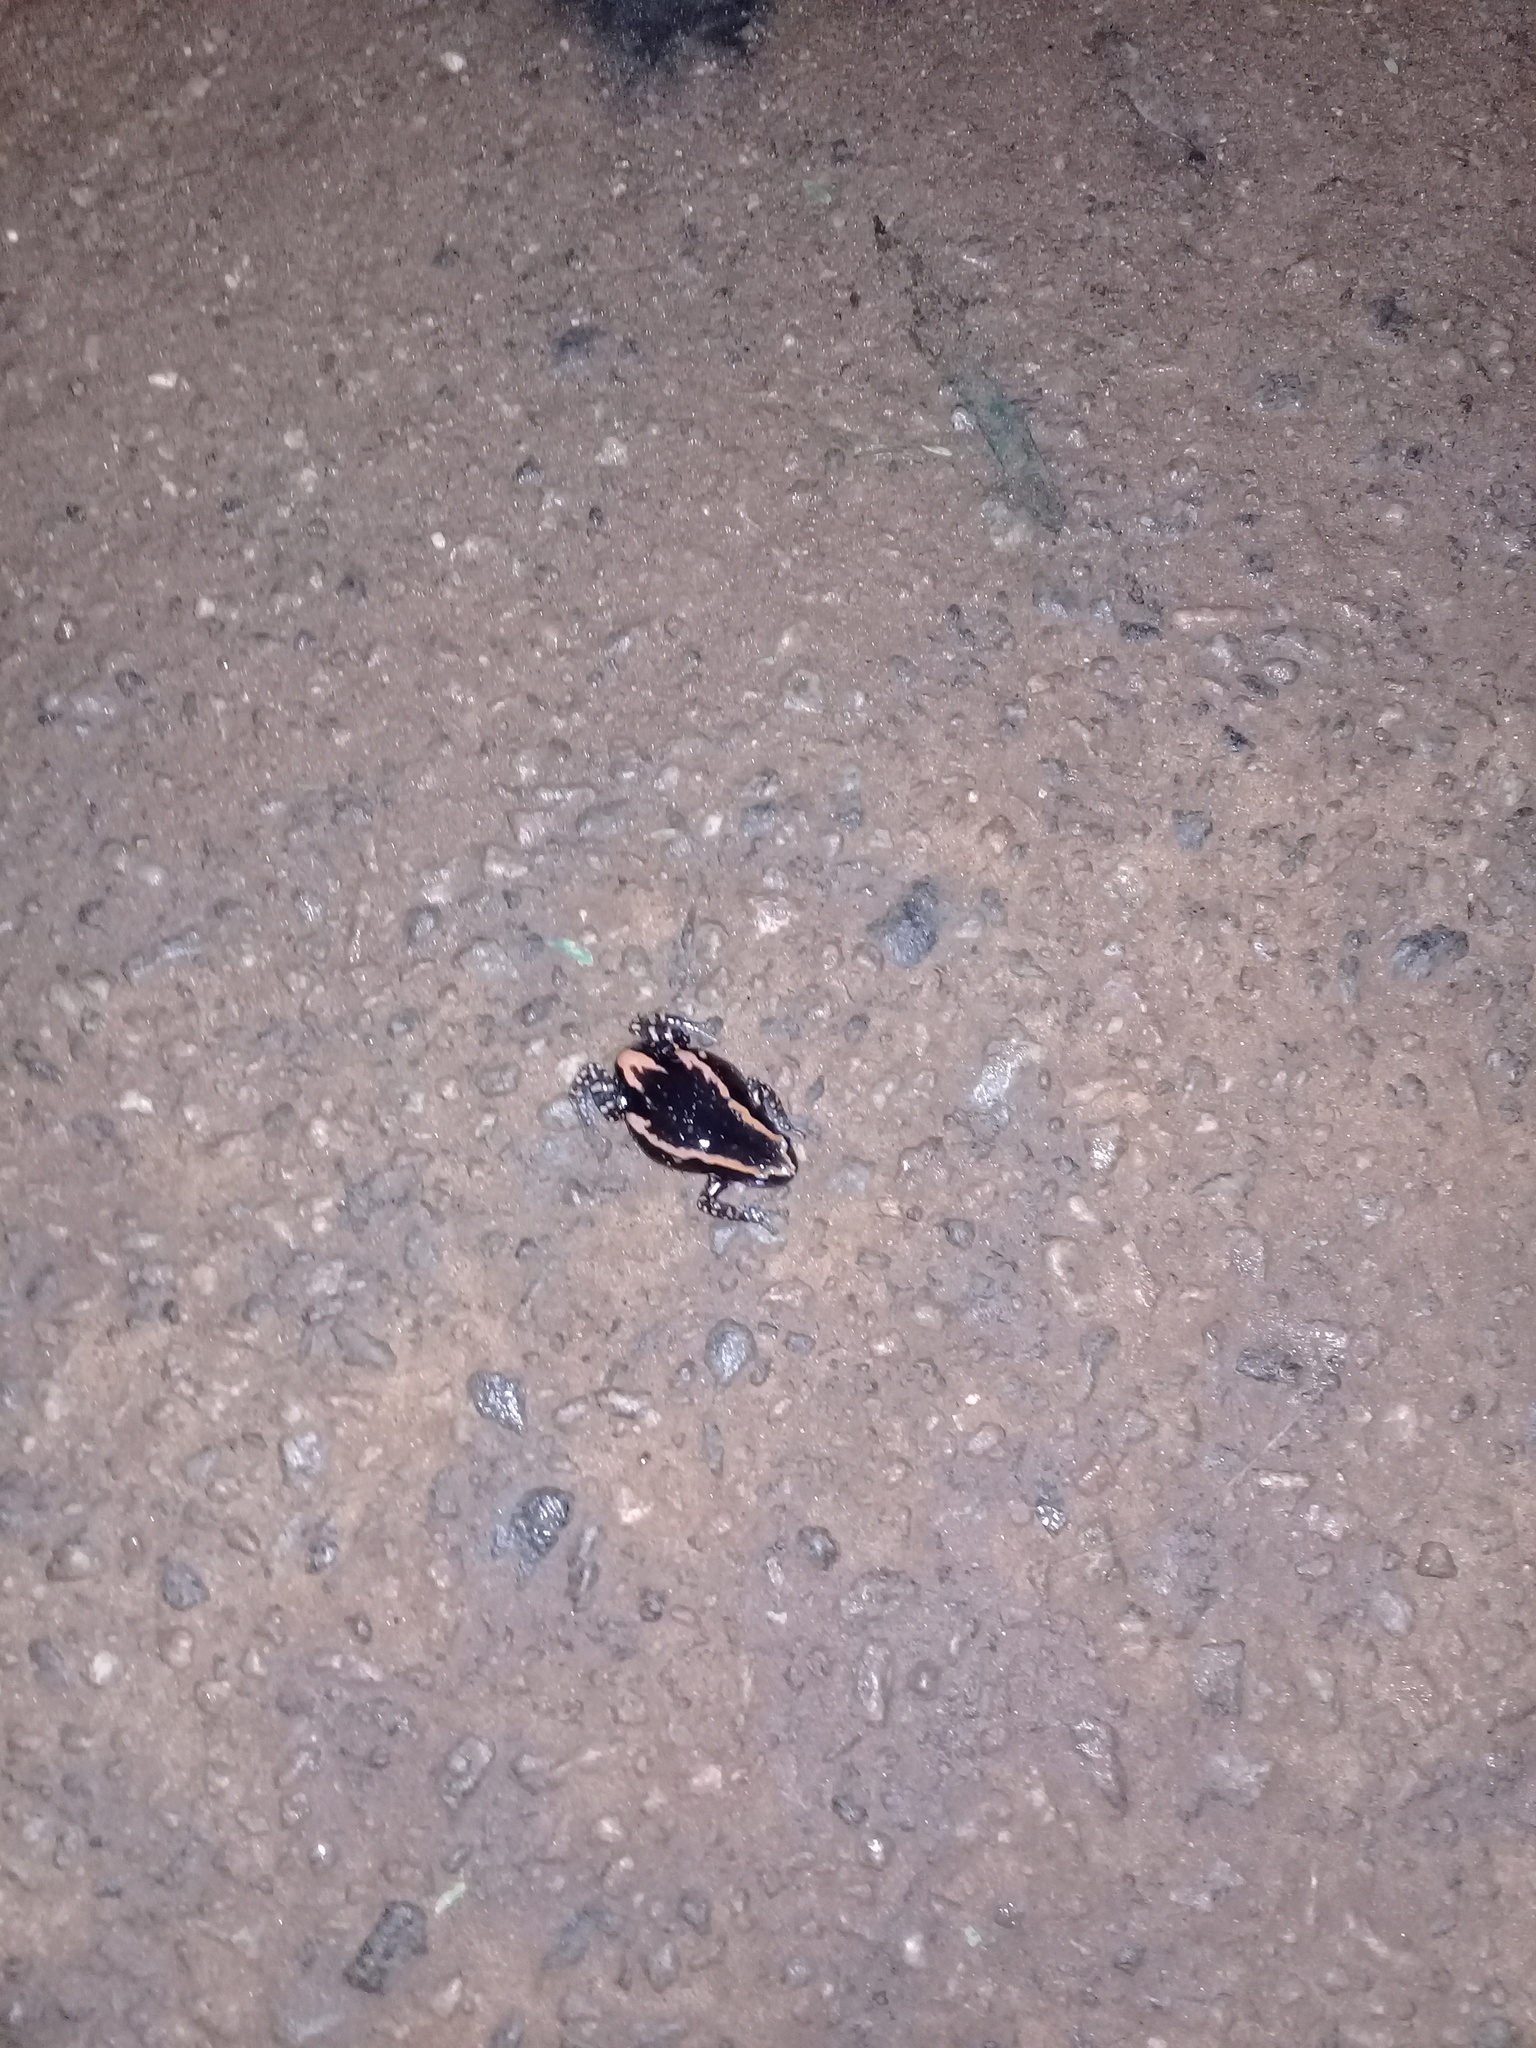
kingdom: Animalia
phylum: Chordata
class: Amphibia
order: Anura
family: Microhylidae
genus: Phrynomantis
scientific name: Phrynomantis bifasciatus
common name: Banded rubber frog
